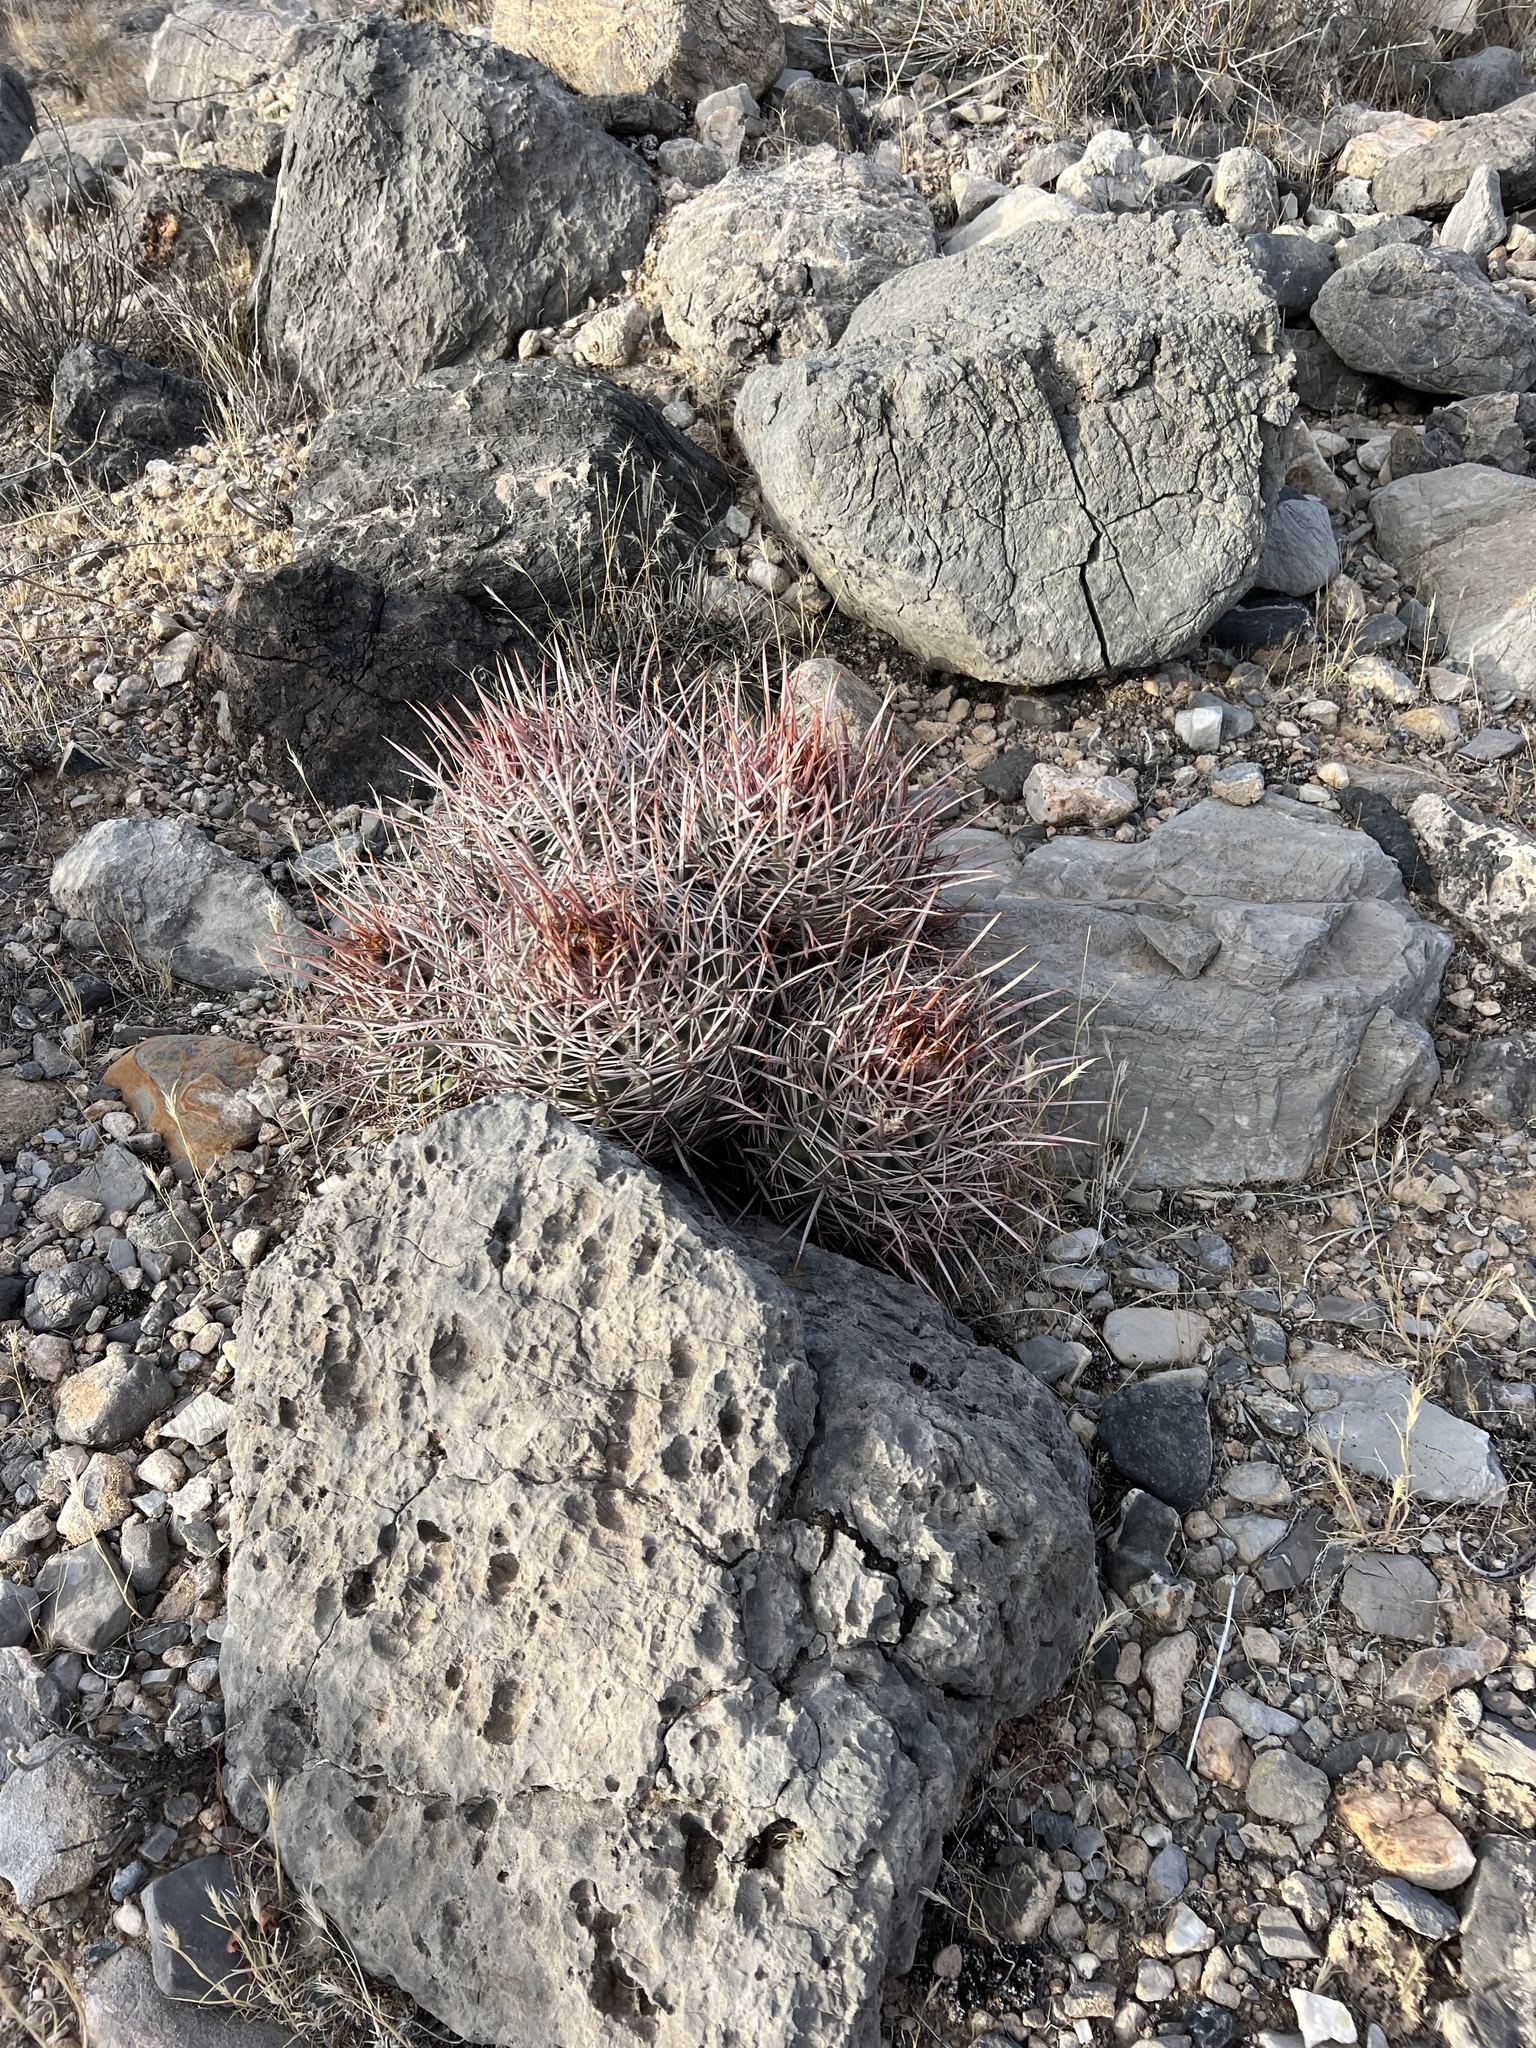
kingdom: Plantae
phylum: Tracheophyta
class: Magnoliopsida
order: Caryophyllales
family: Cactaceae
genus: Echinocactus
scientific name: Echinocactus polycephalus
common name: Cottontop cactus
